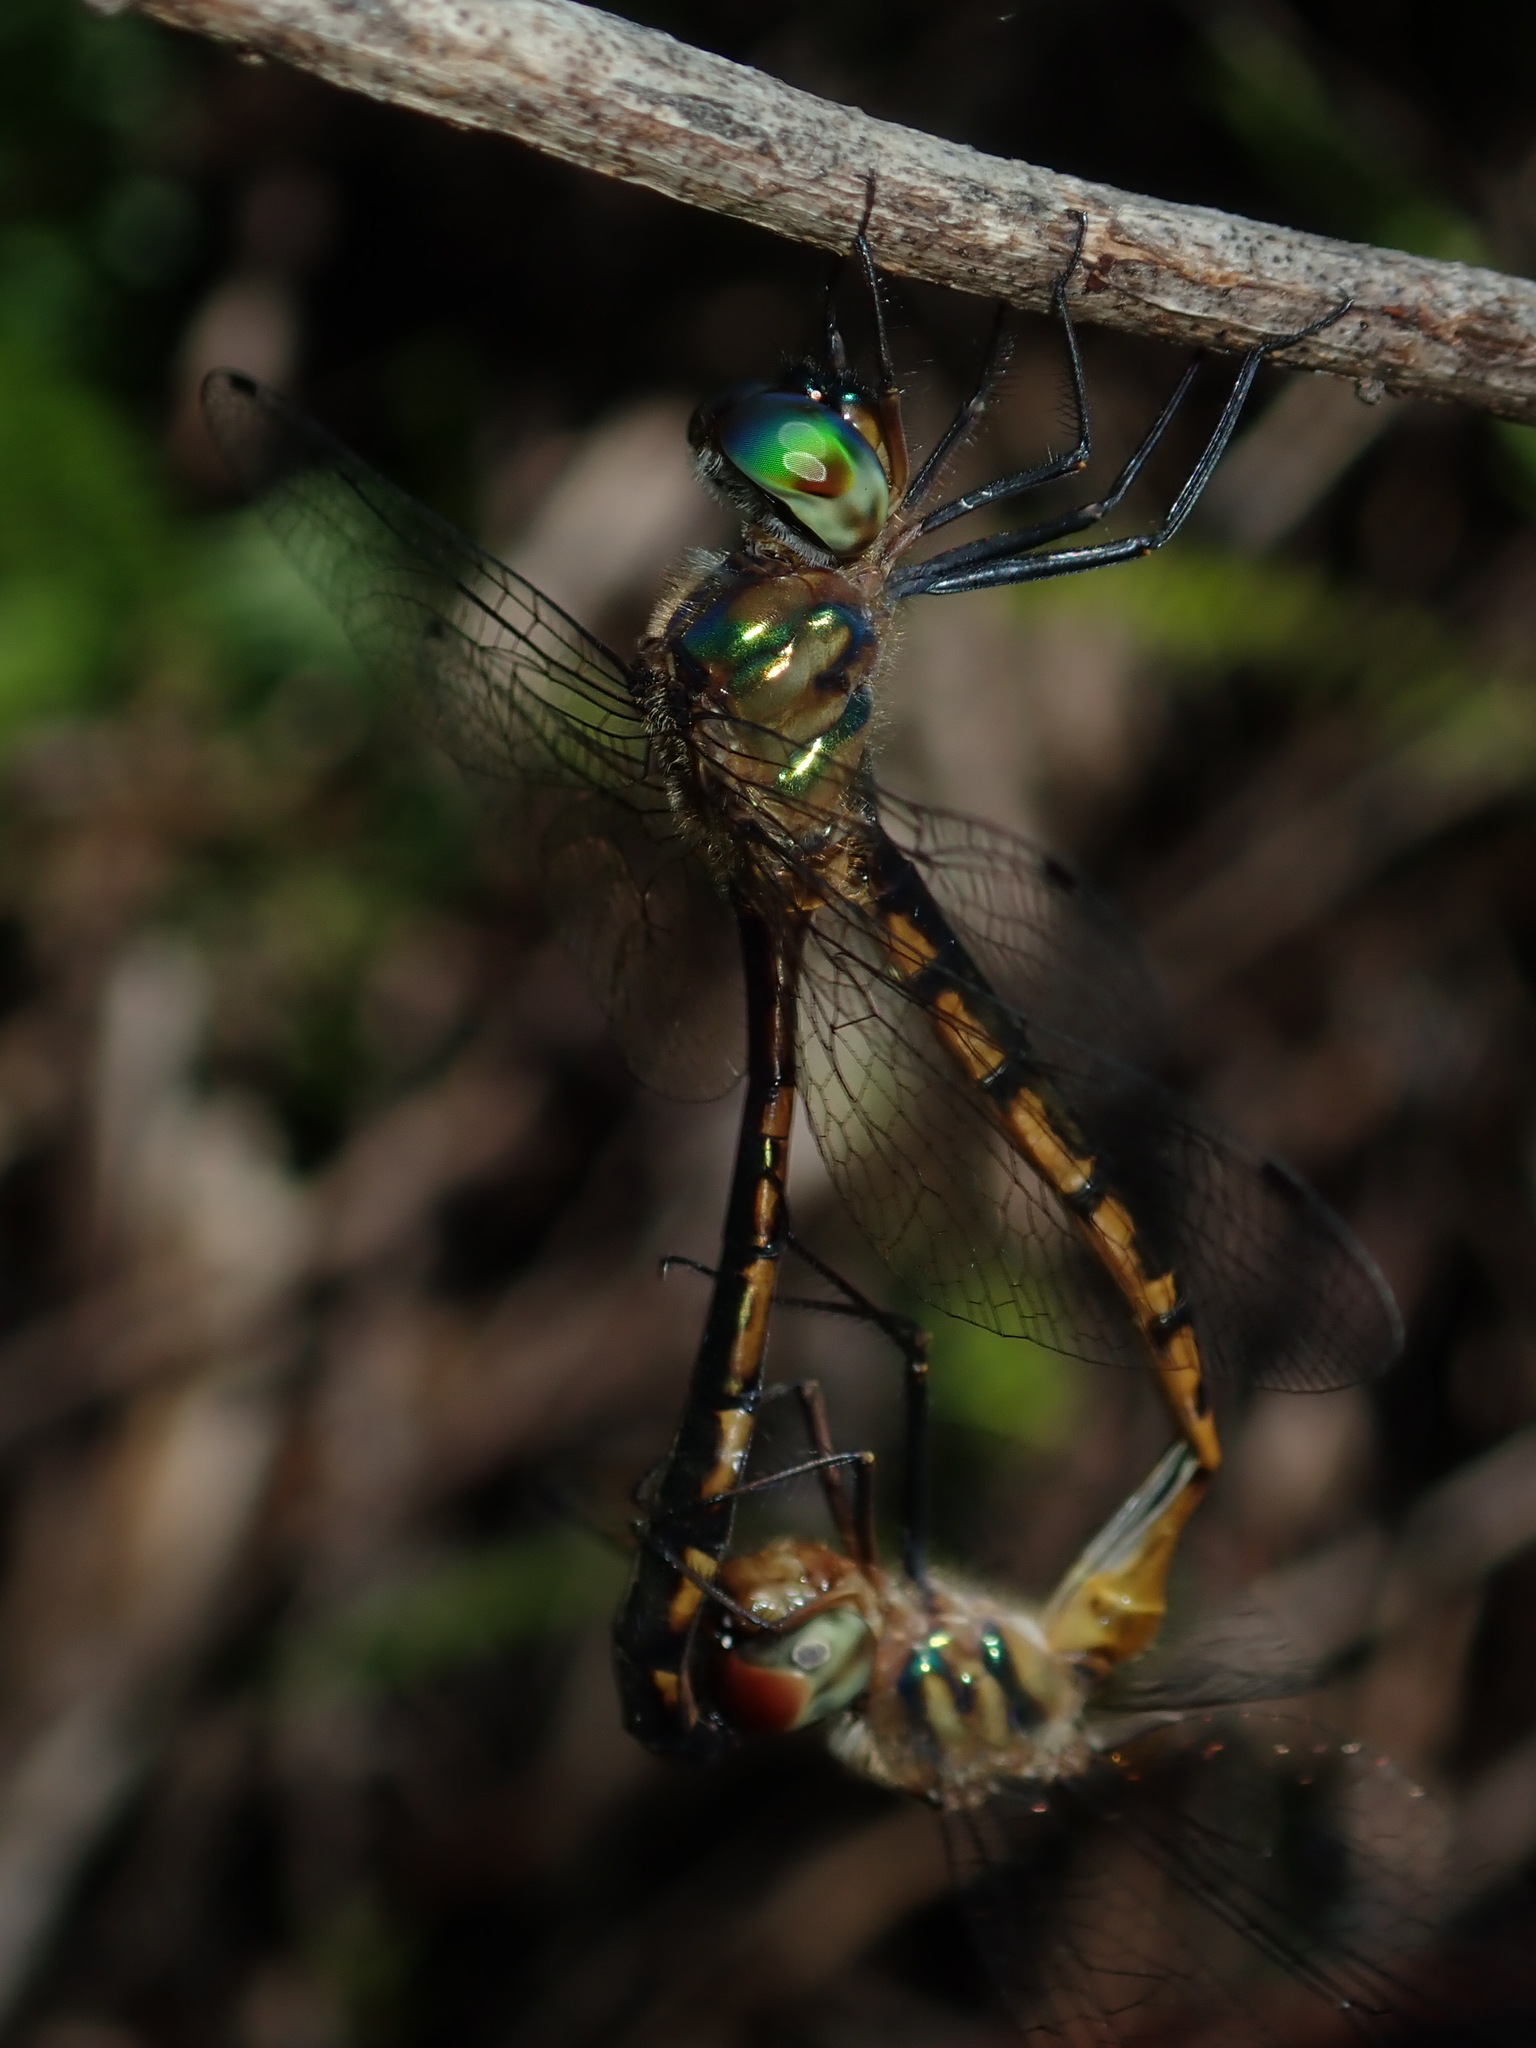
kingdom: Animalia
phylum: Arthropoda
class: Insecta
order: Odonata
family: Corduliidae
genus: Hemicordulia
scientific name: Hemicordulia continentalis
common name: Fat-bellied emerald
